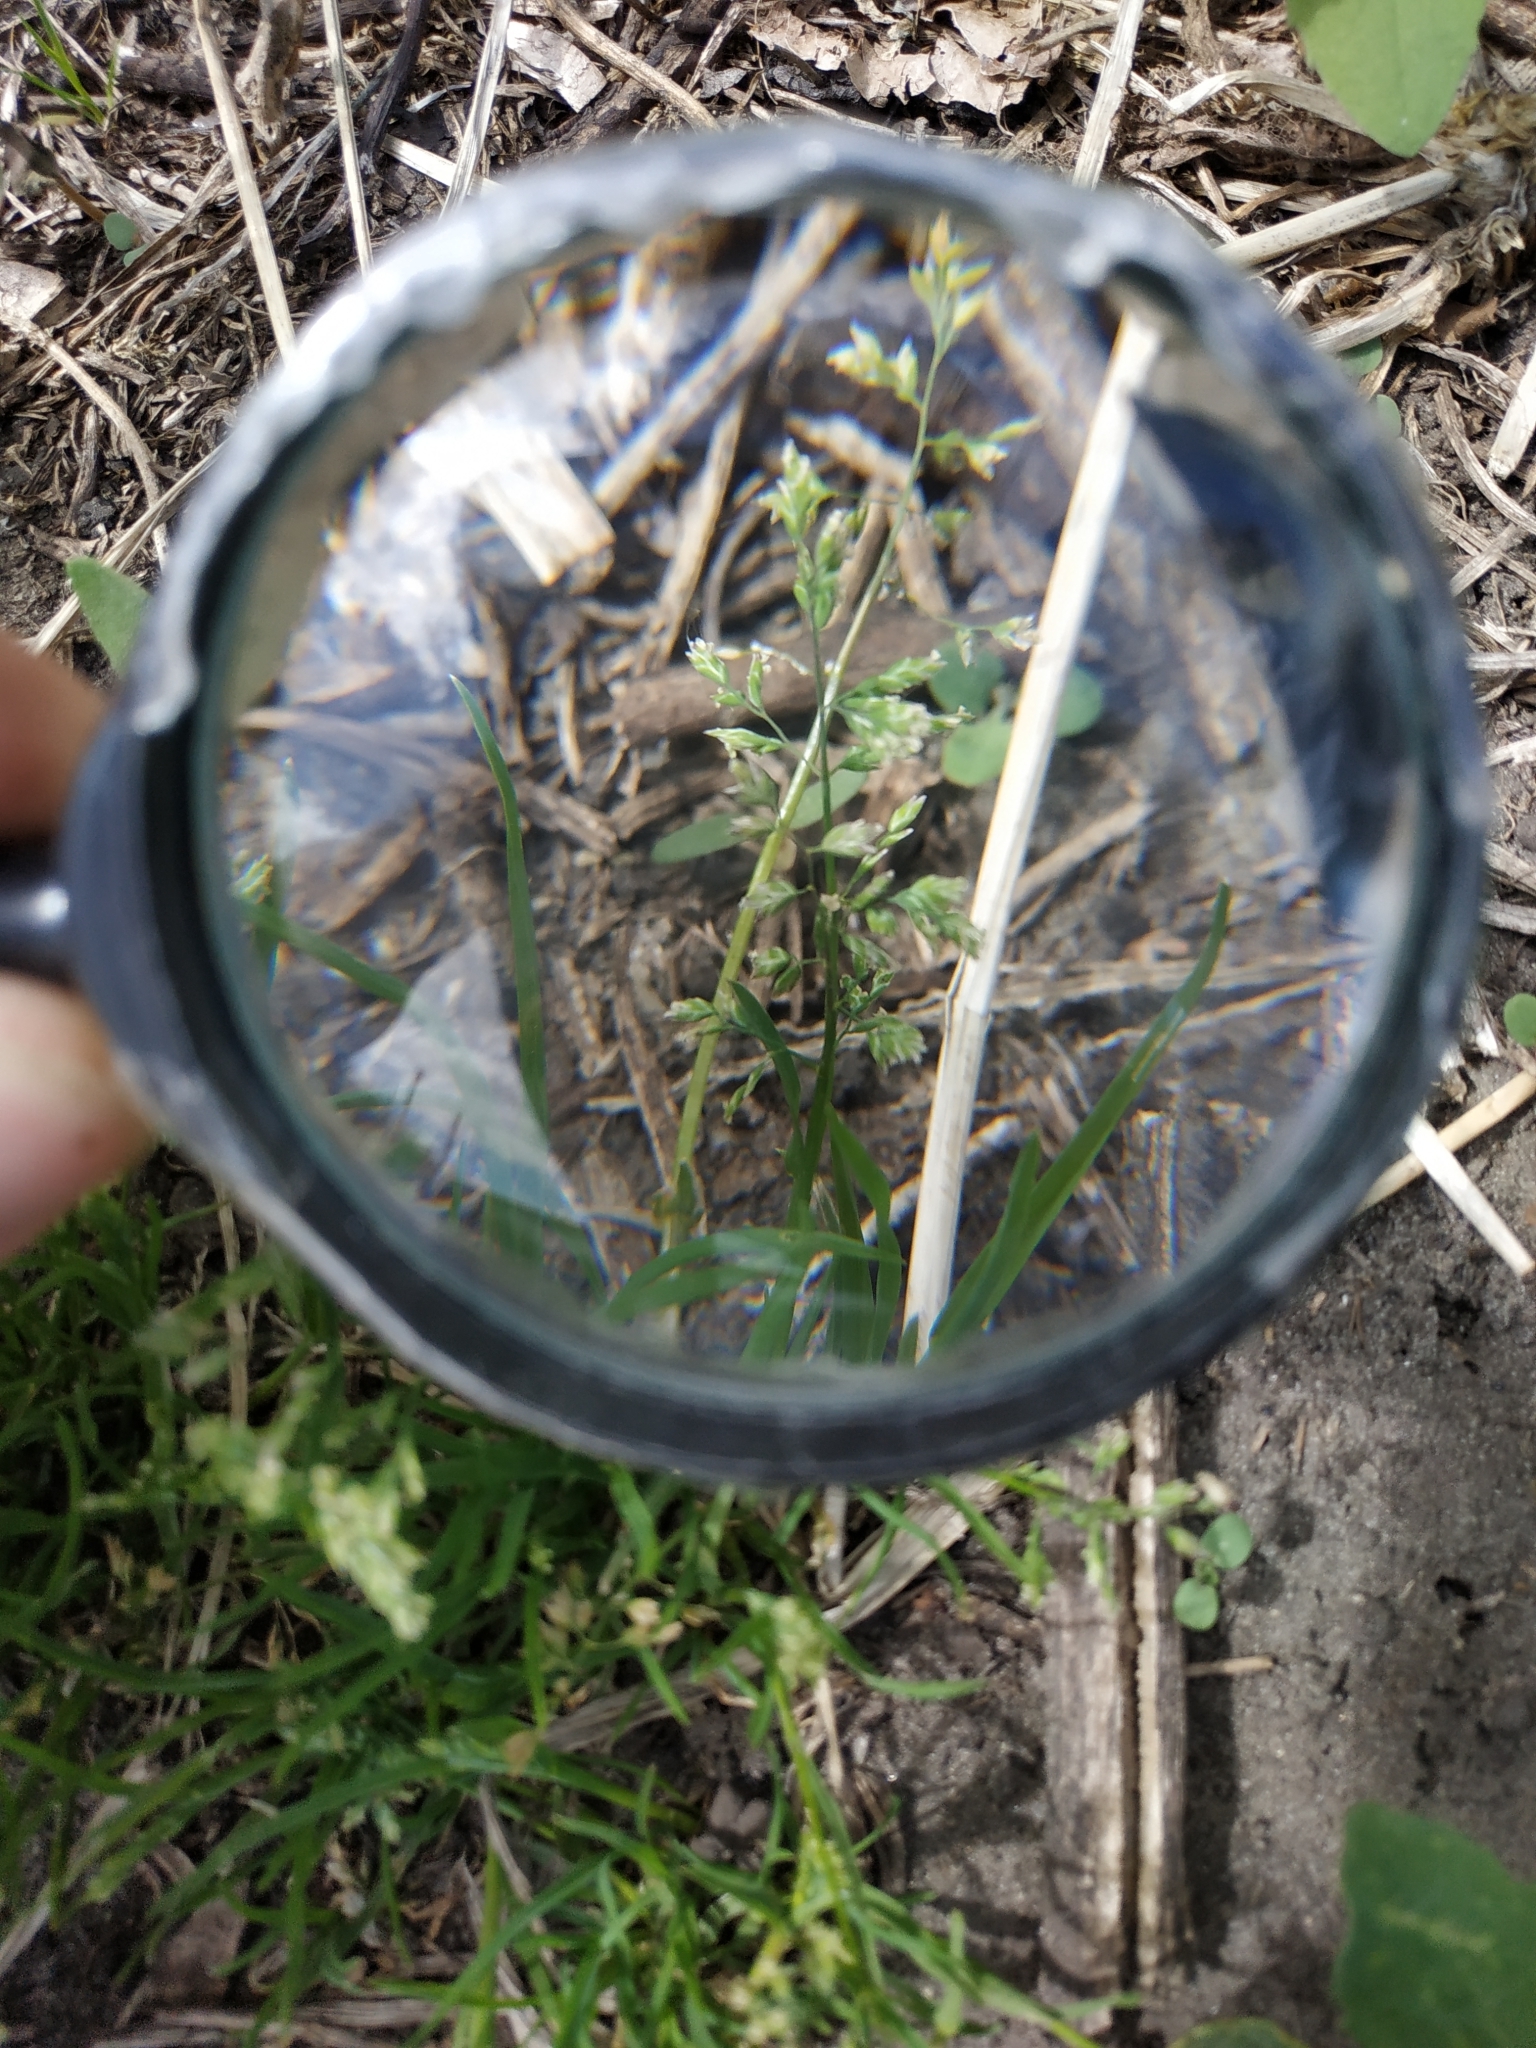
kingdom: Plantae
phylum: Tracheophyta
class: Liliopsida
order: Poales
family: Poaceae
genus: Poa
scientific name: Poa annua
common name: Annual bluegrass
